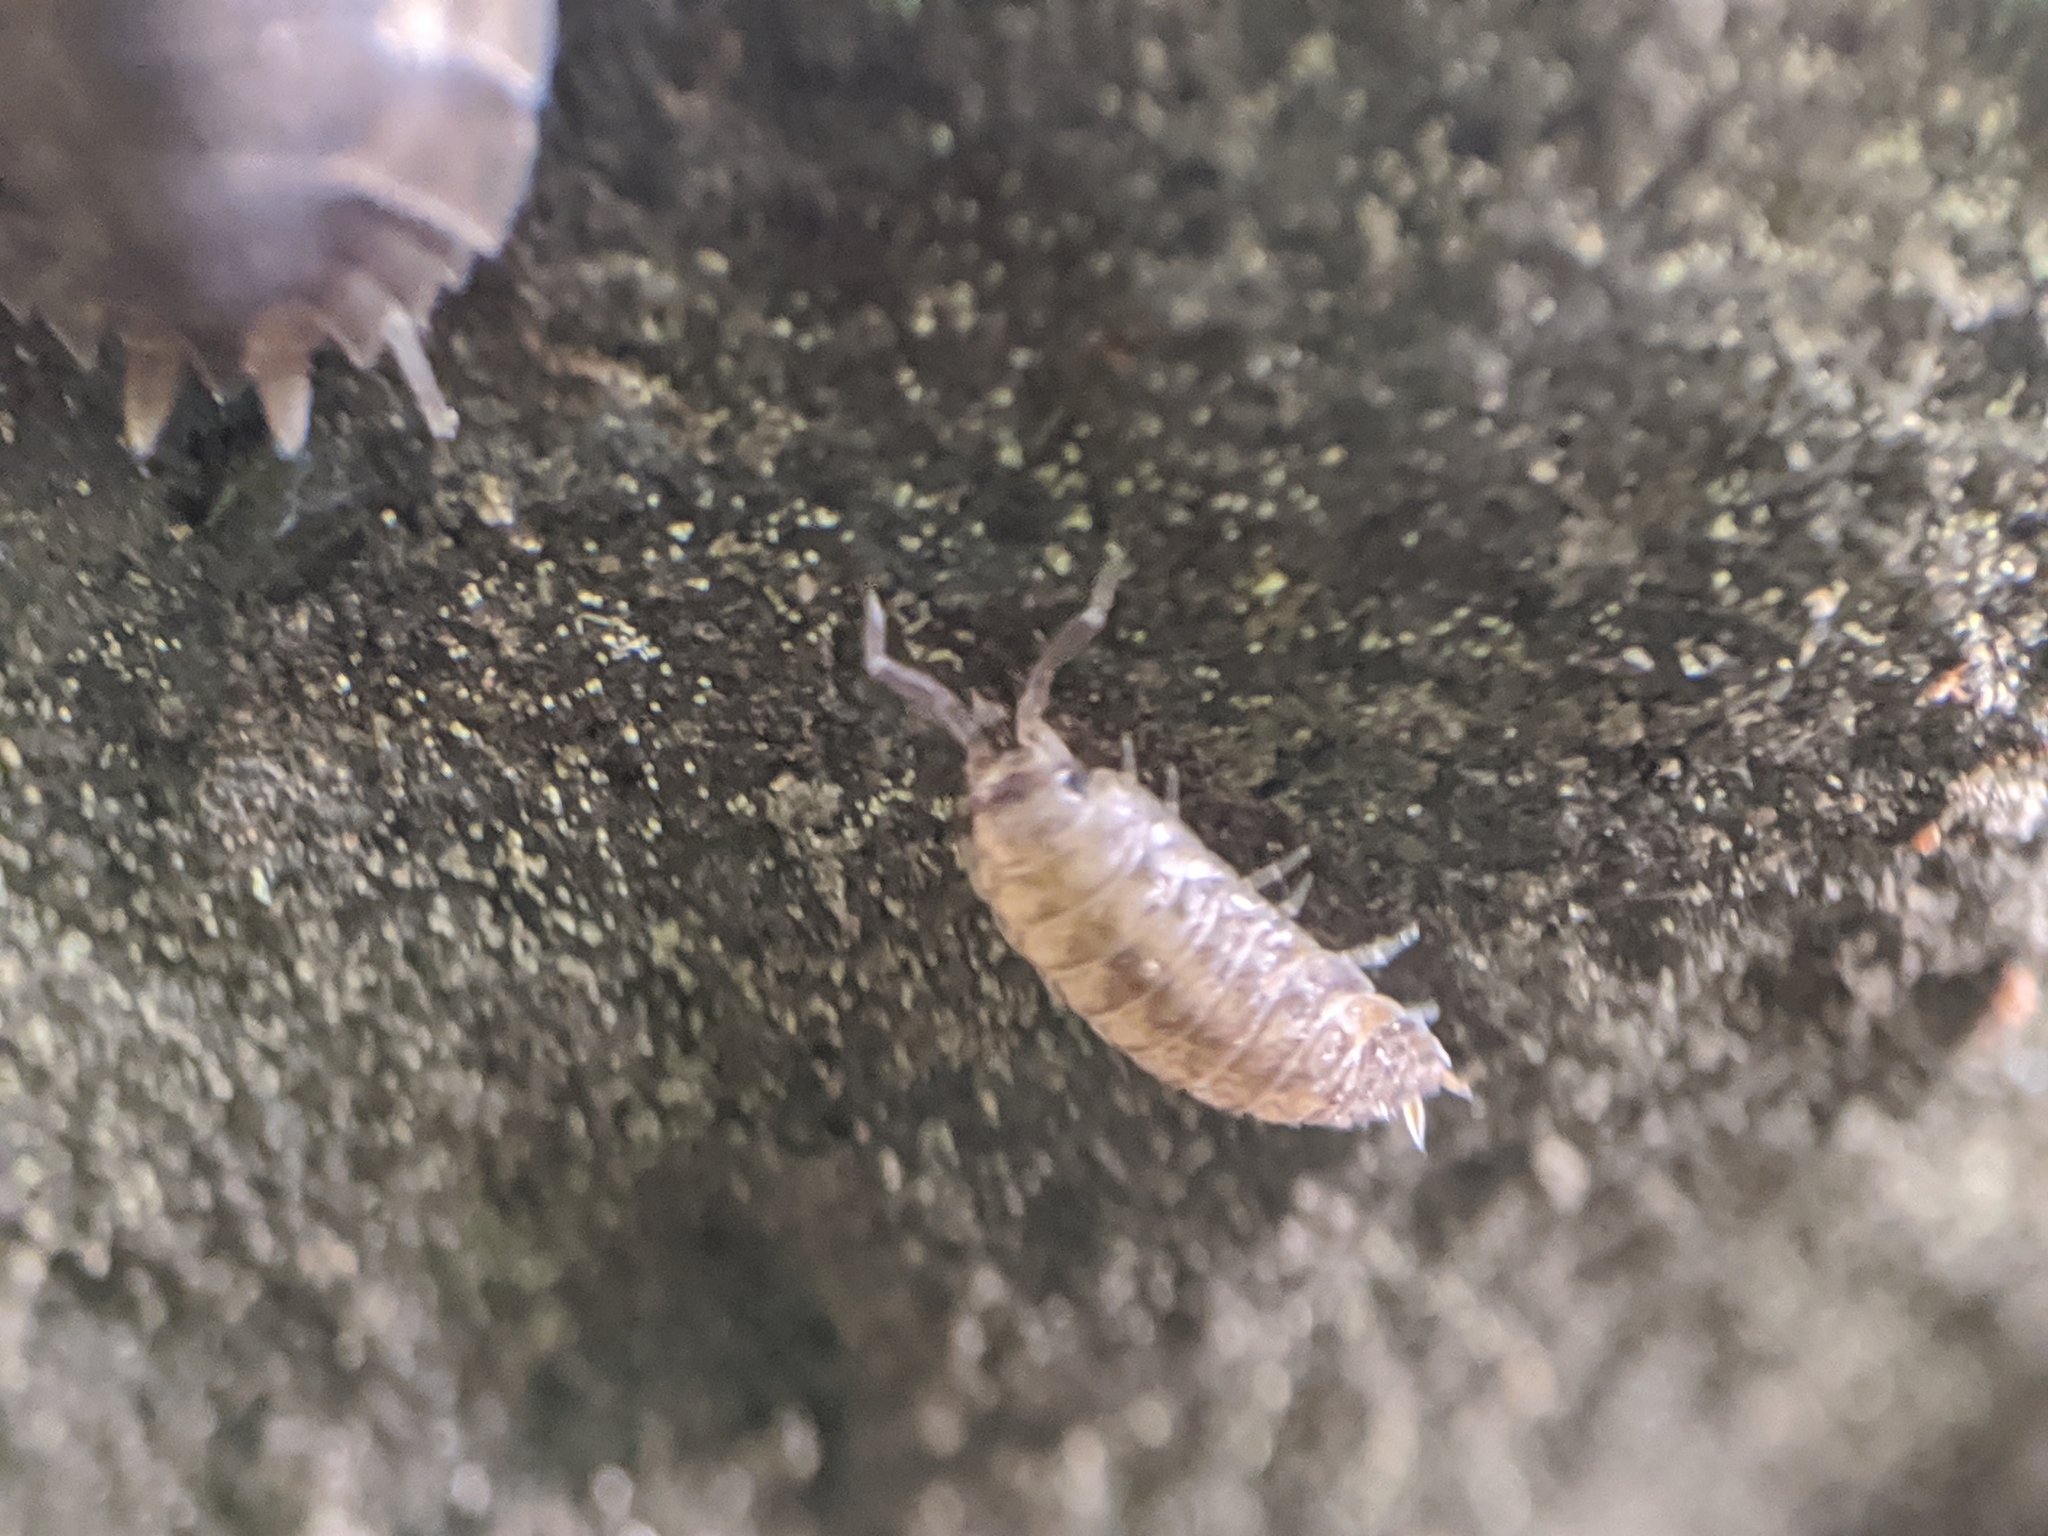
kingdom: Animalia
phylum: Arthropoda
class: Malacostraca
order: Isopoda
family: Porcellionidae
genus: Porcellio
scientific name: Porcellio scaber
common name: Common rough woodlouse
